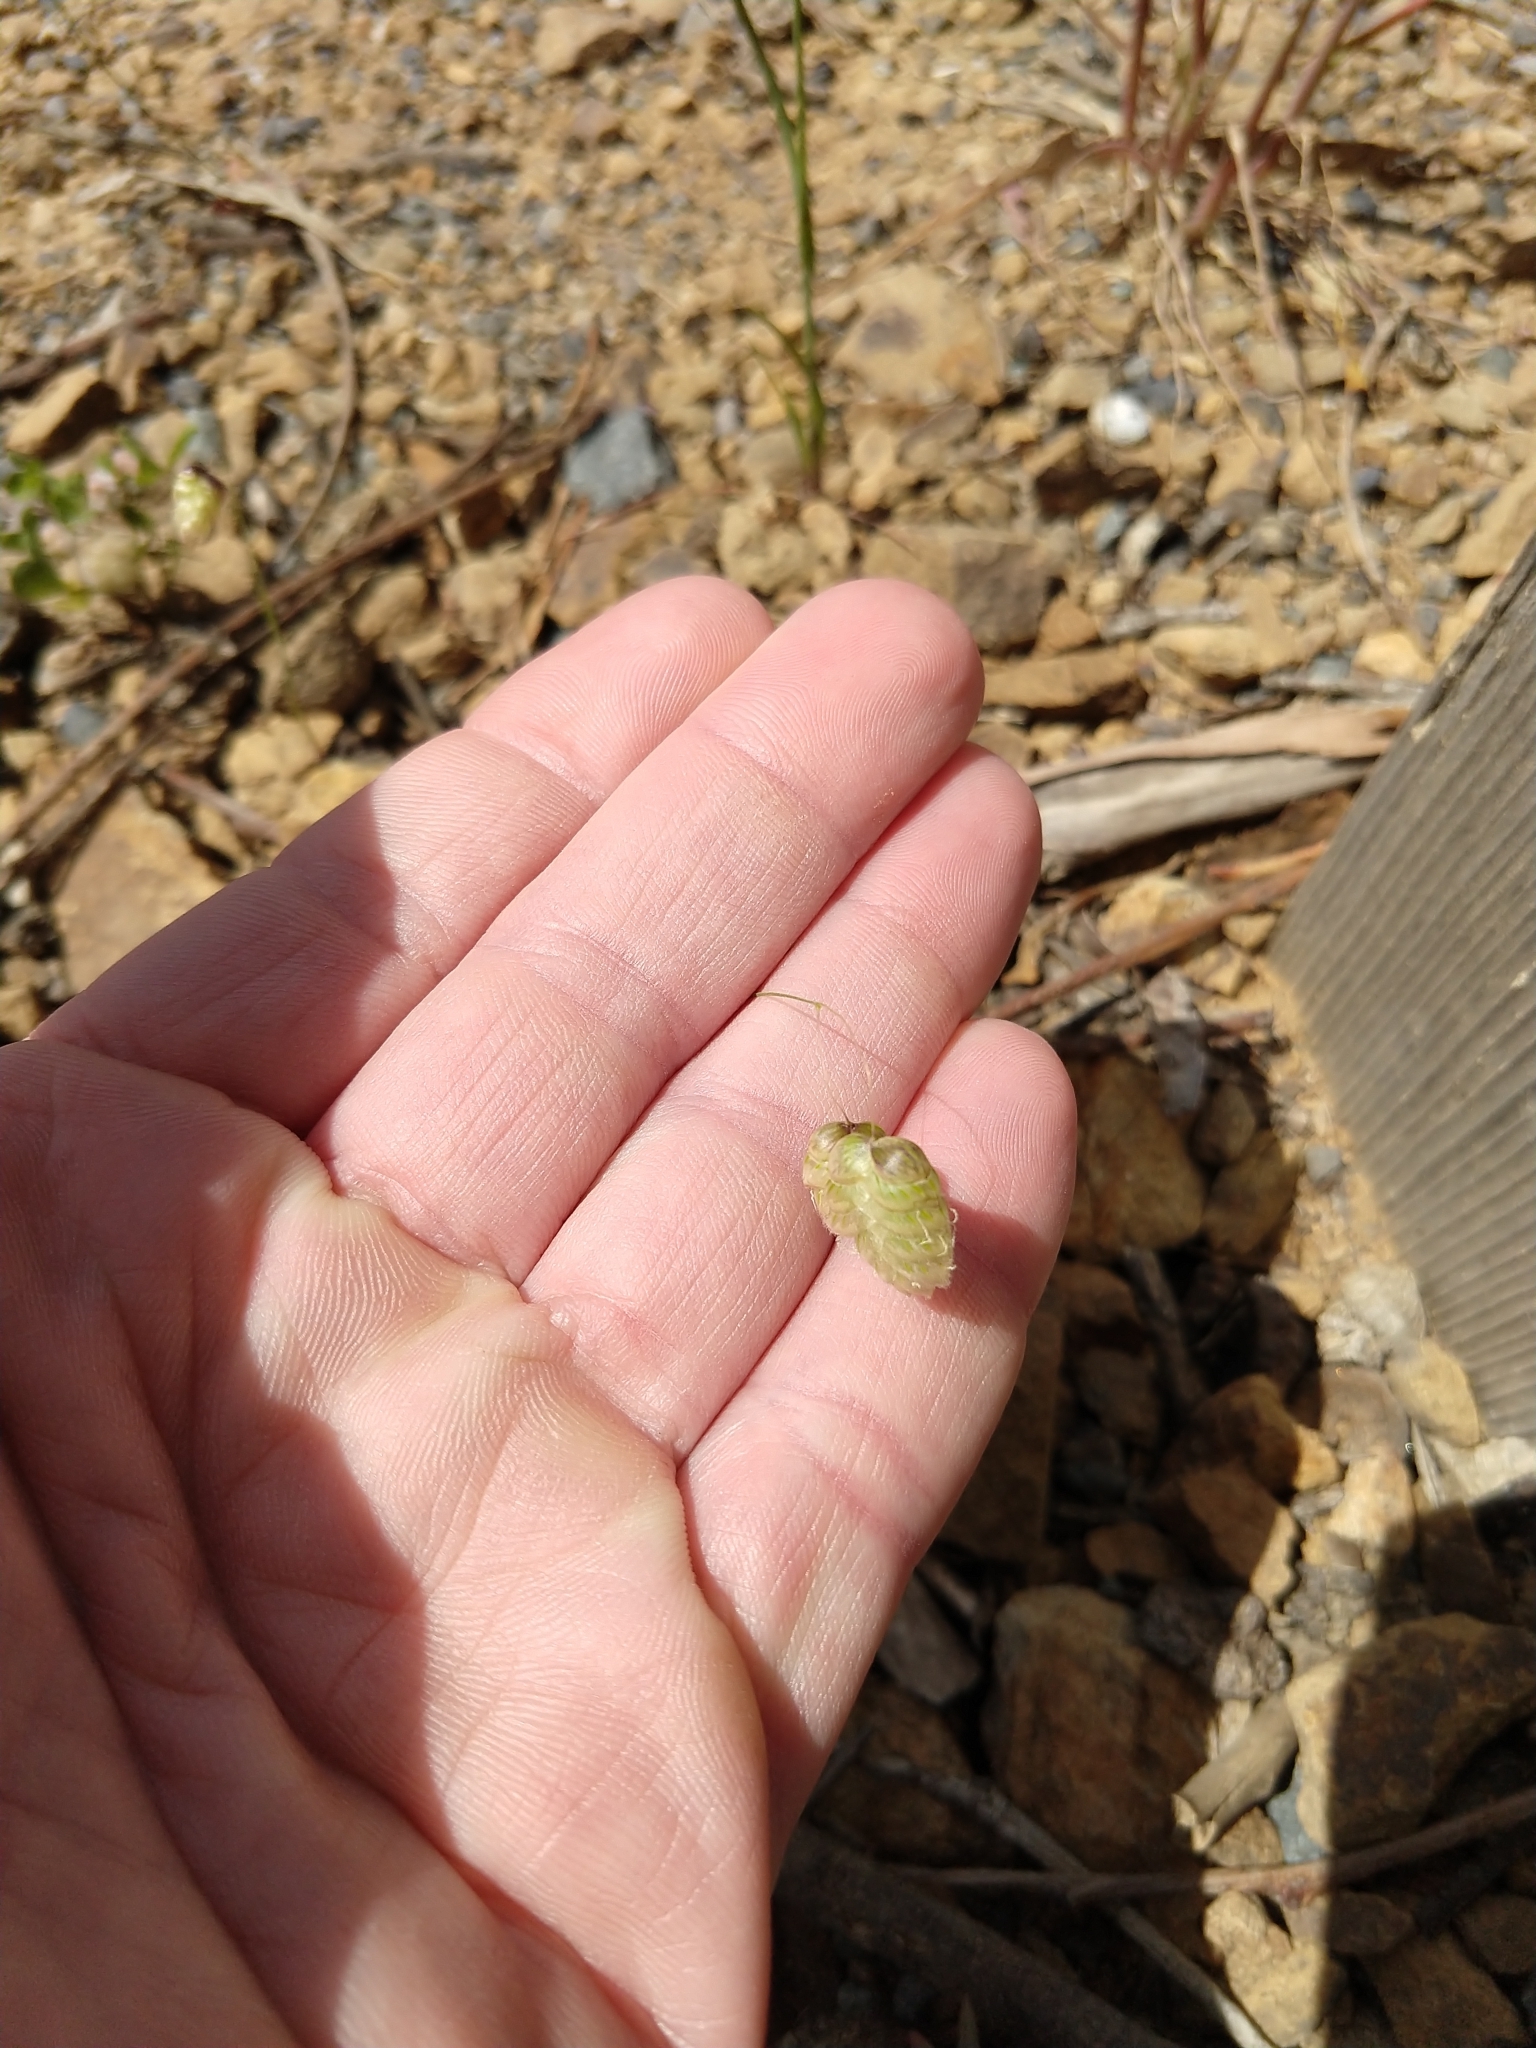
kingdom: Plantae
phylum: Tracheophyta
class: Liliopsida
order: Poales
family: Poaceae
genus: Briza
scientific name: Briza maxima
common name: Big quakinggrass
